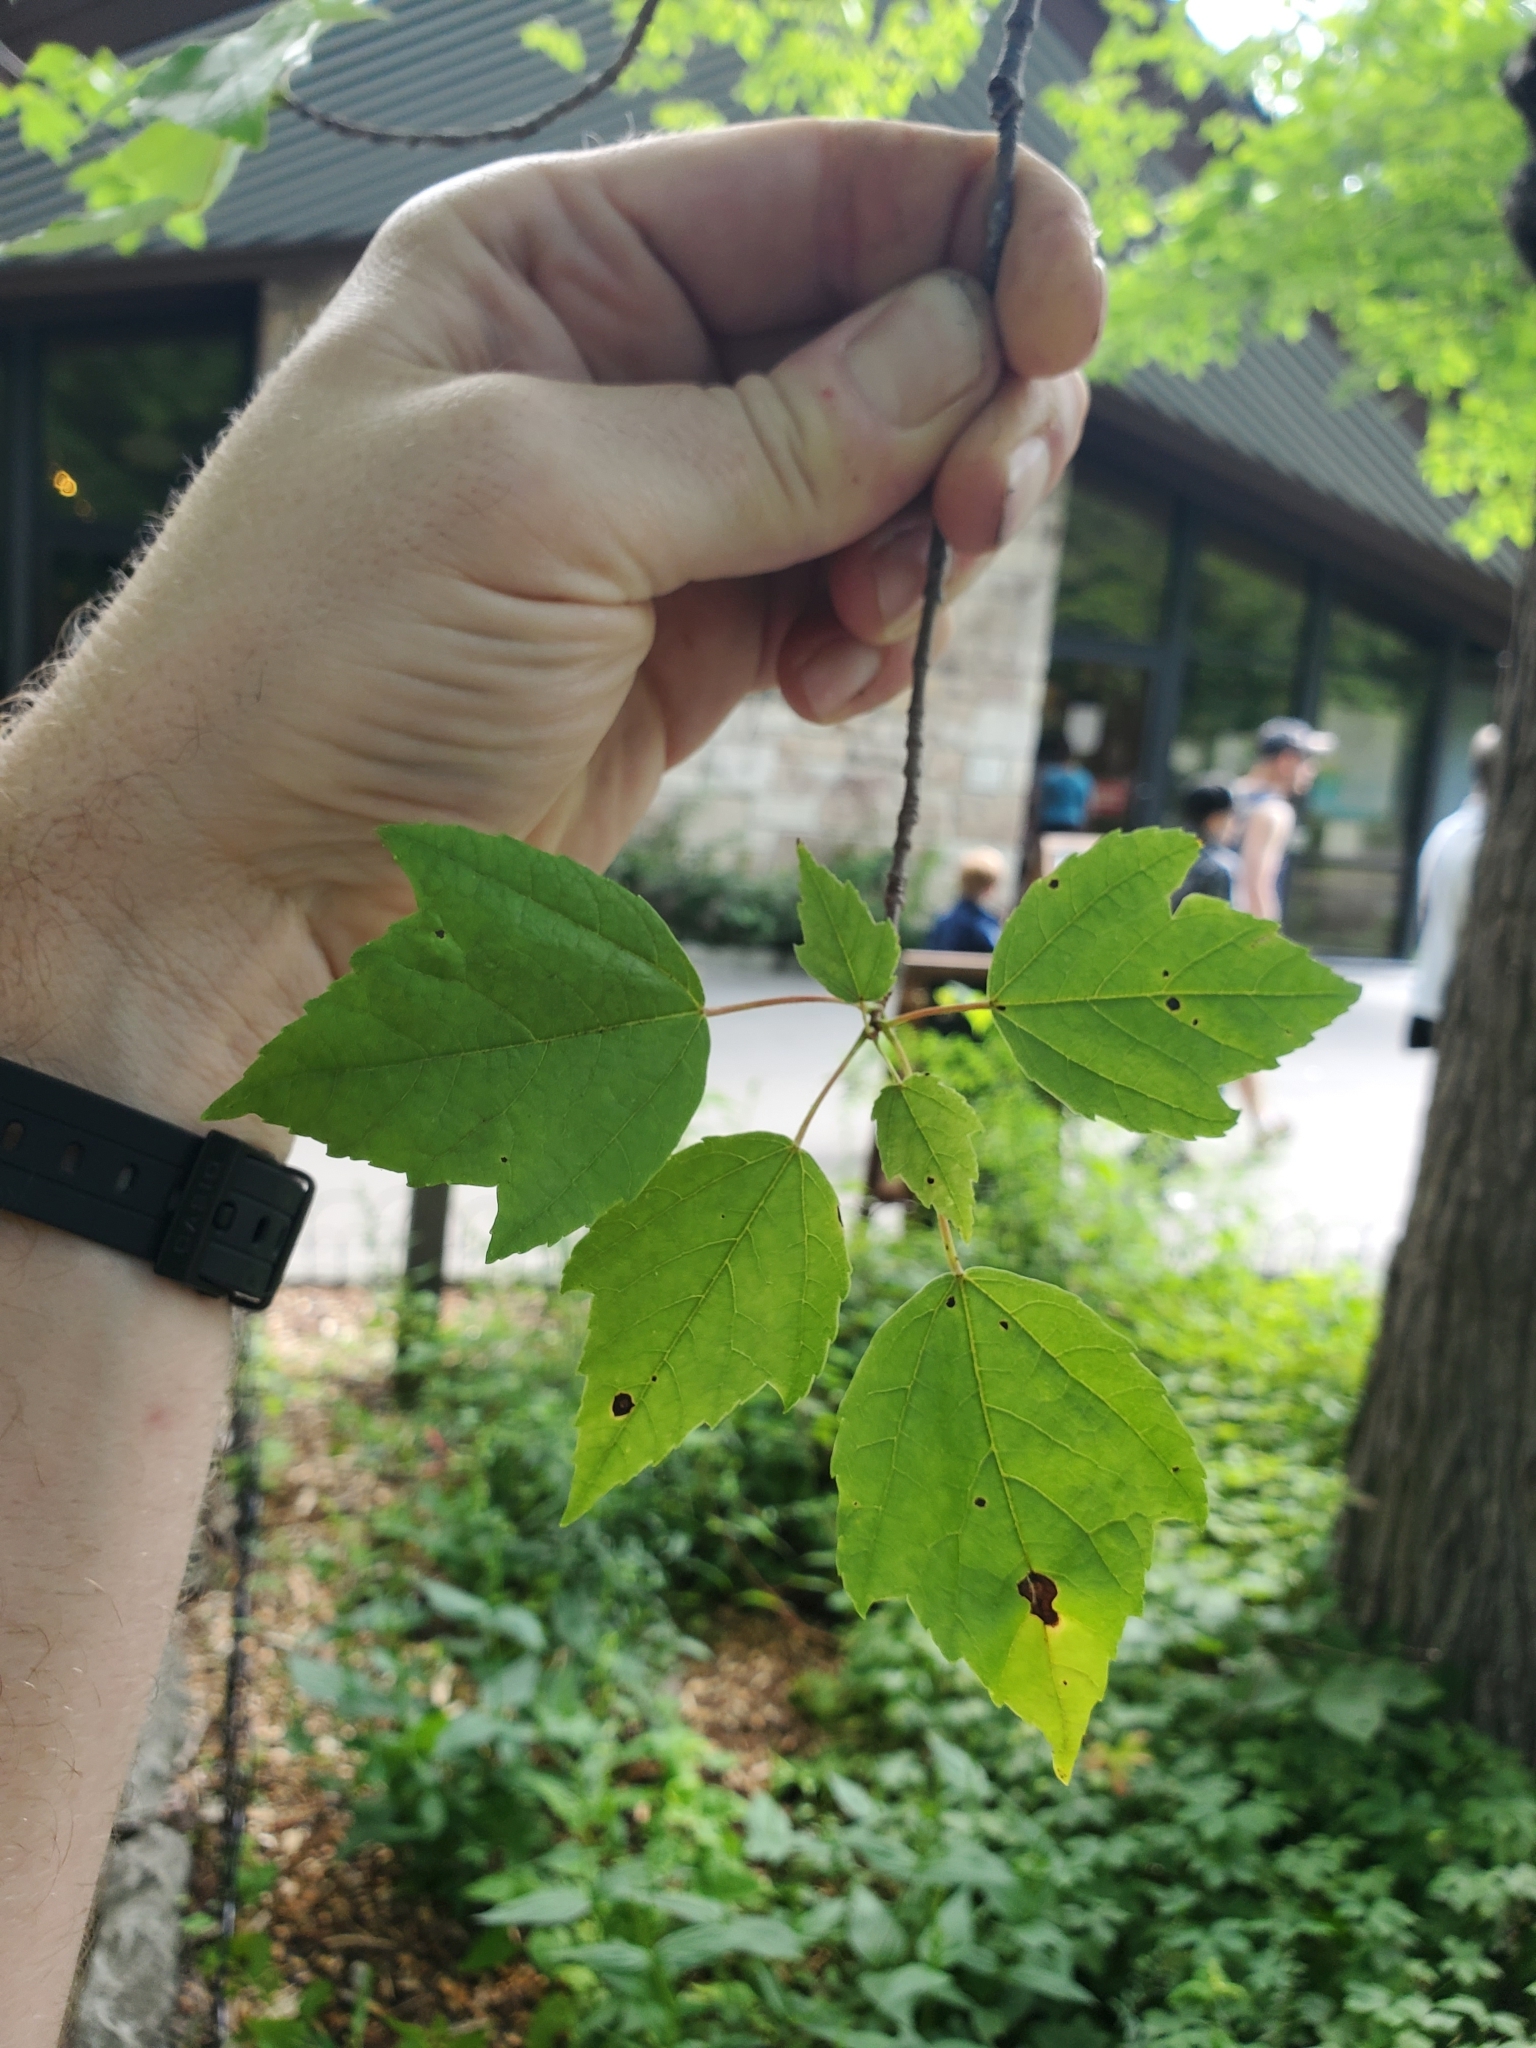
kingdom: Plantae
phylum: Tracheophyta
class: Magnoliopsida
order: Sapindales
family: Sapindaceae
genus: Acer
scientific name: Acer rubrum
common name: Red maple
